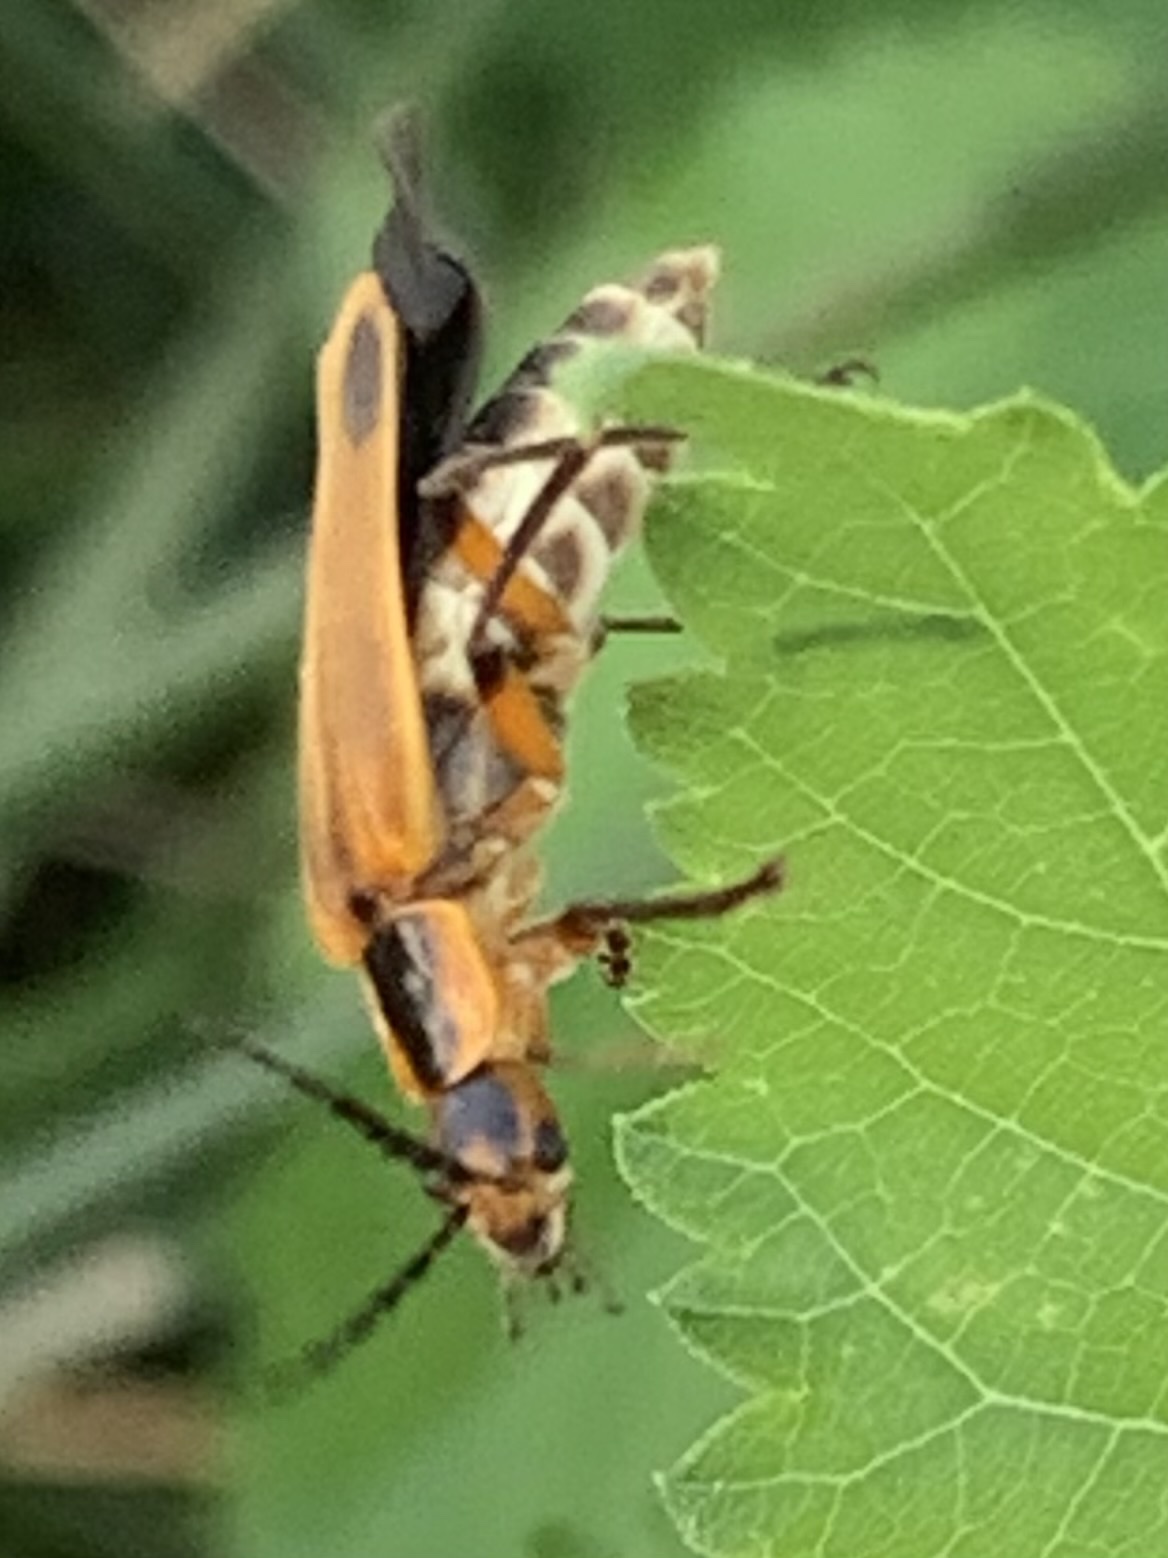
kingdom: Animalia
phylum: Arthropoda
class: Insecta
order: Coleoptera
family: Cantharidae
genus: Chauliognathus
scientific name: Chauliognathus marginatus
